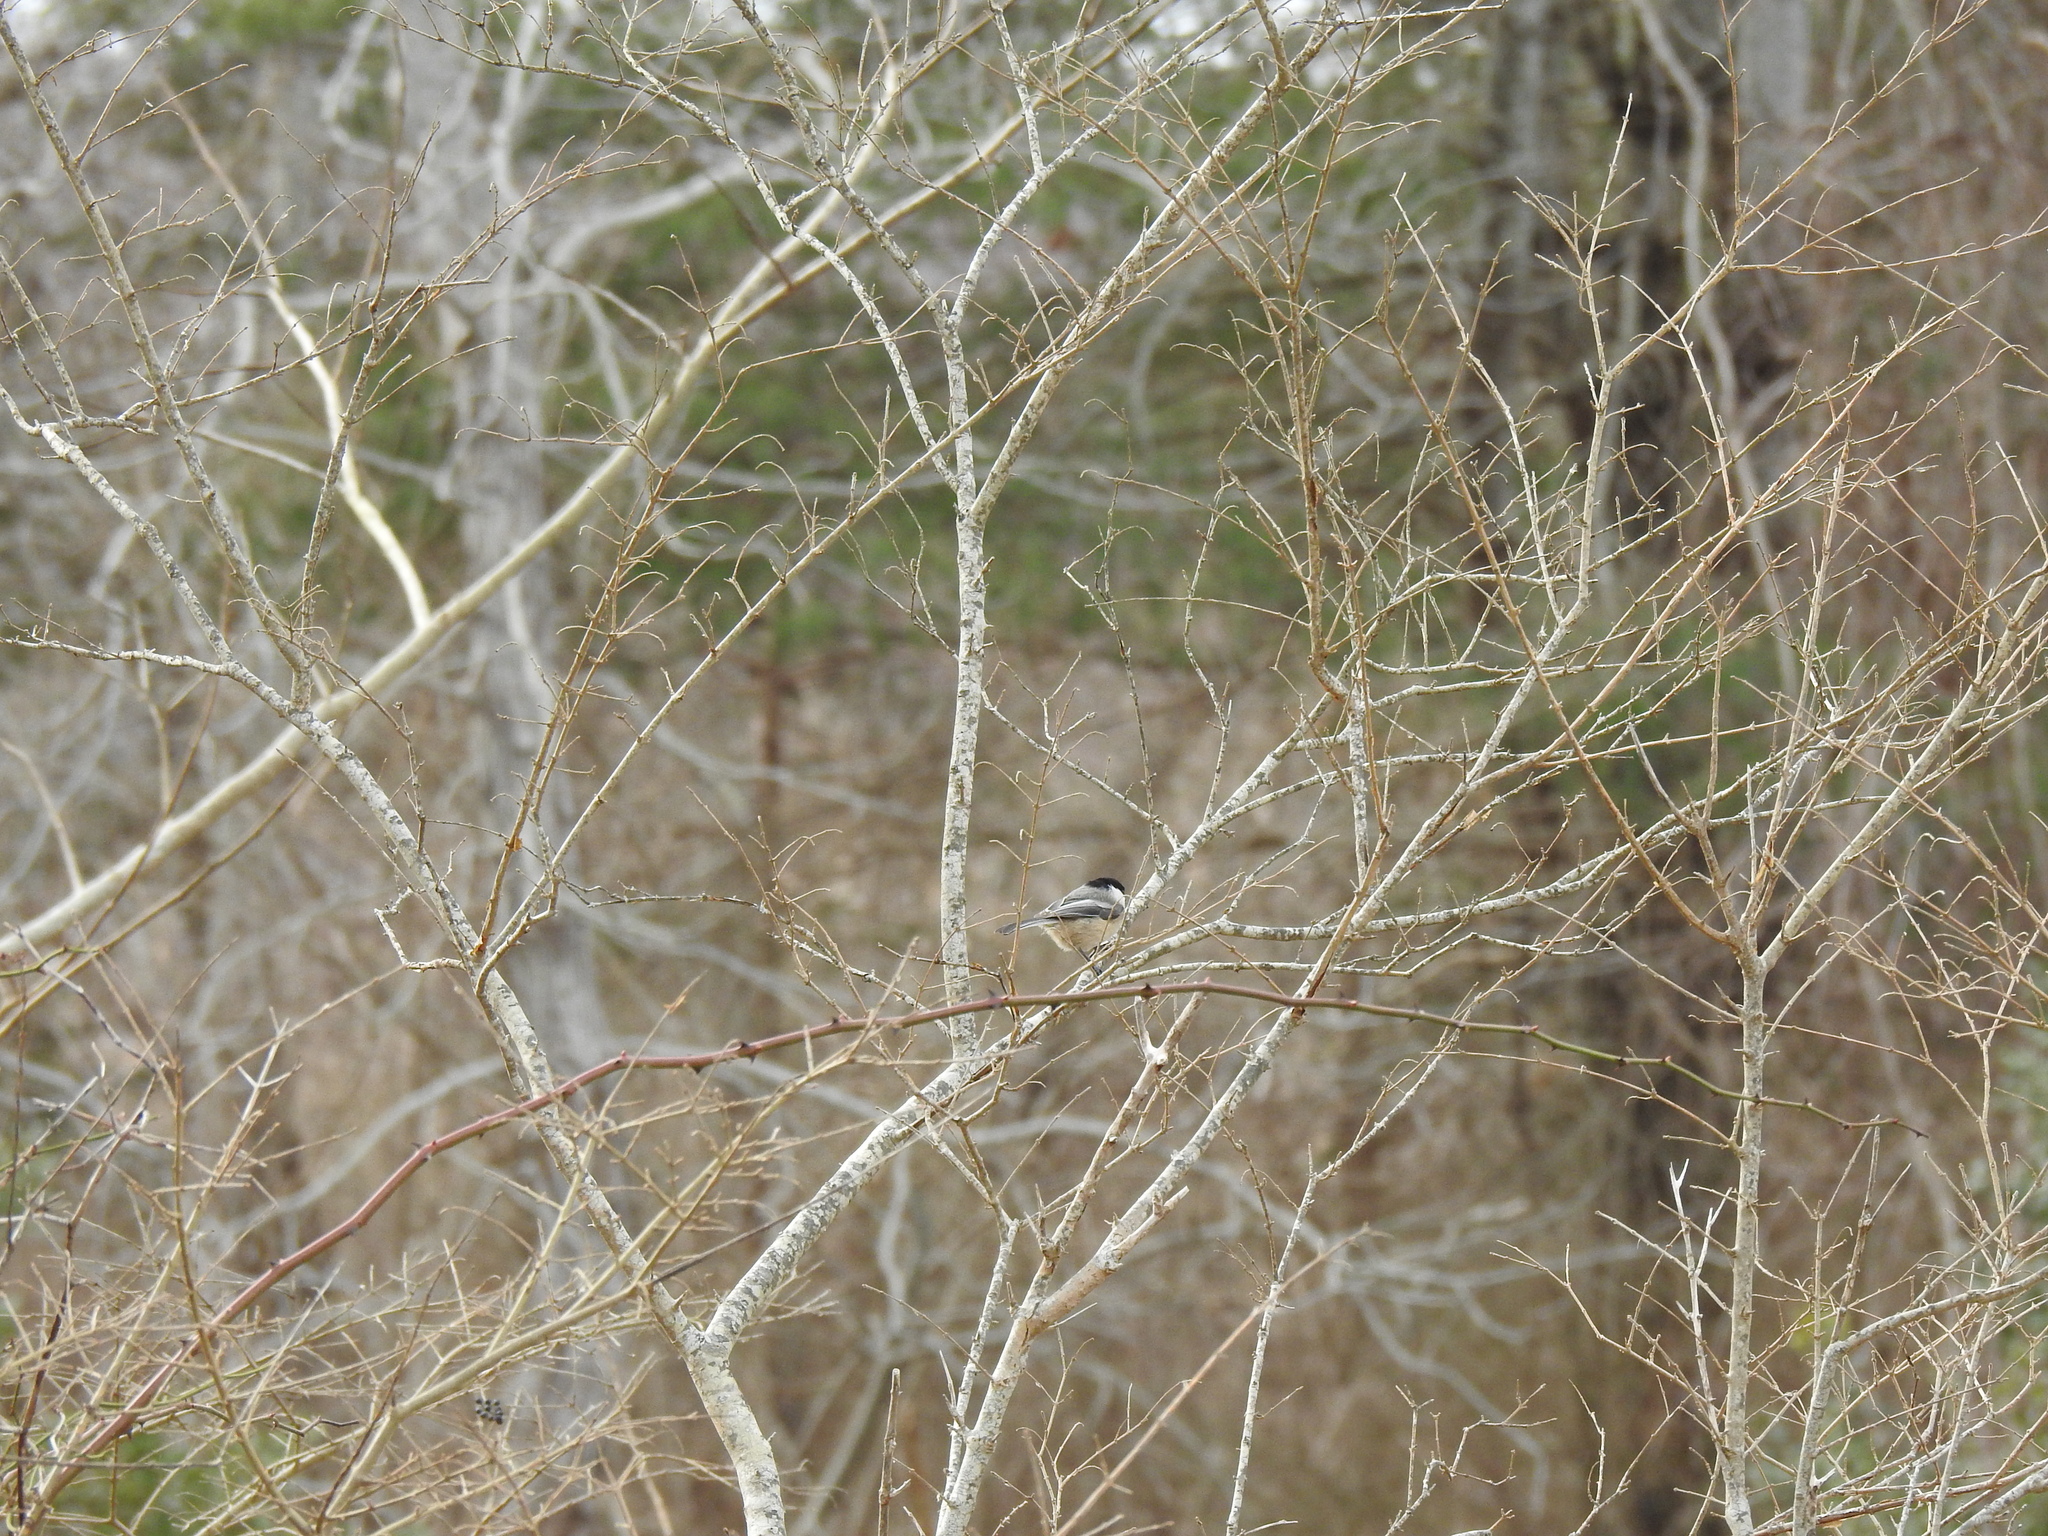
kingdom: Animalia
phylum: Chordata
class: Aves
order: Passeriformes
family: Paridae
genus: Poecile
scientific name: Poecile atricapillus
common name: Black-capped chickadee
